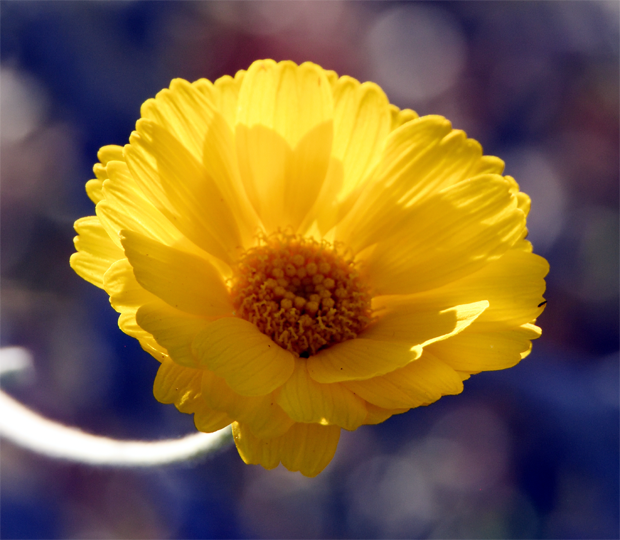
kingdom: Plantae
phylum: Tracheophyta
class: Magnoliopsida
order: Asterales
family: Asteraceae
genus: Baileya
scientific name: Baileya pleniradiata
